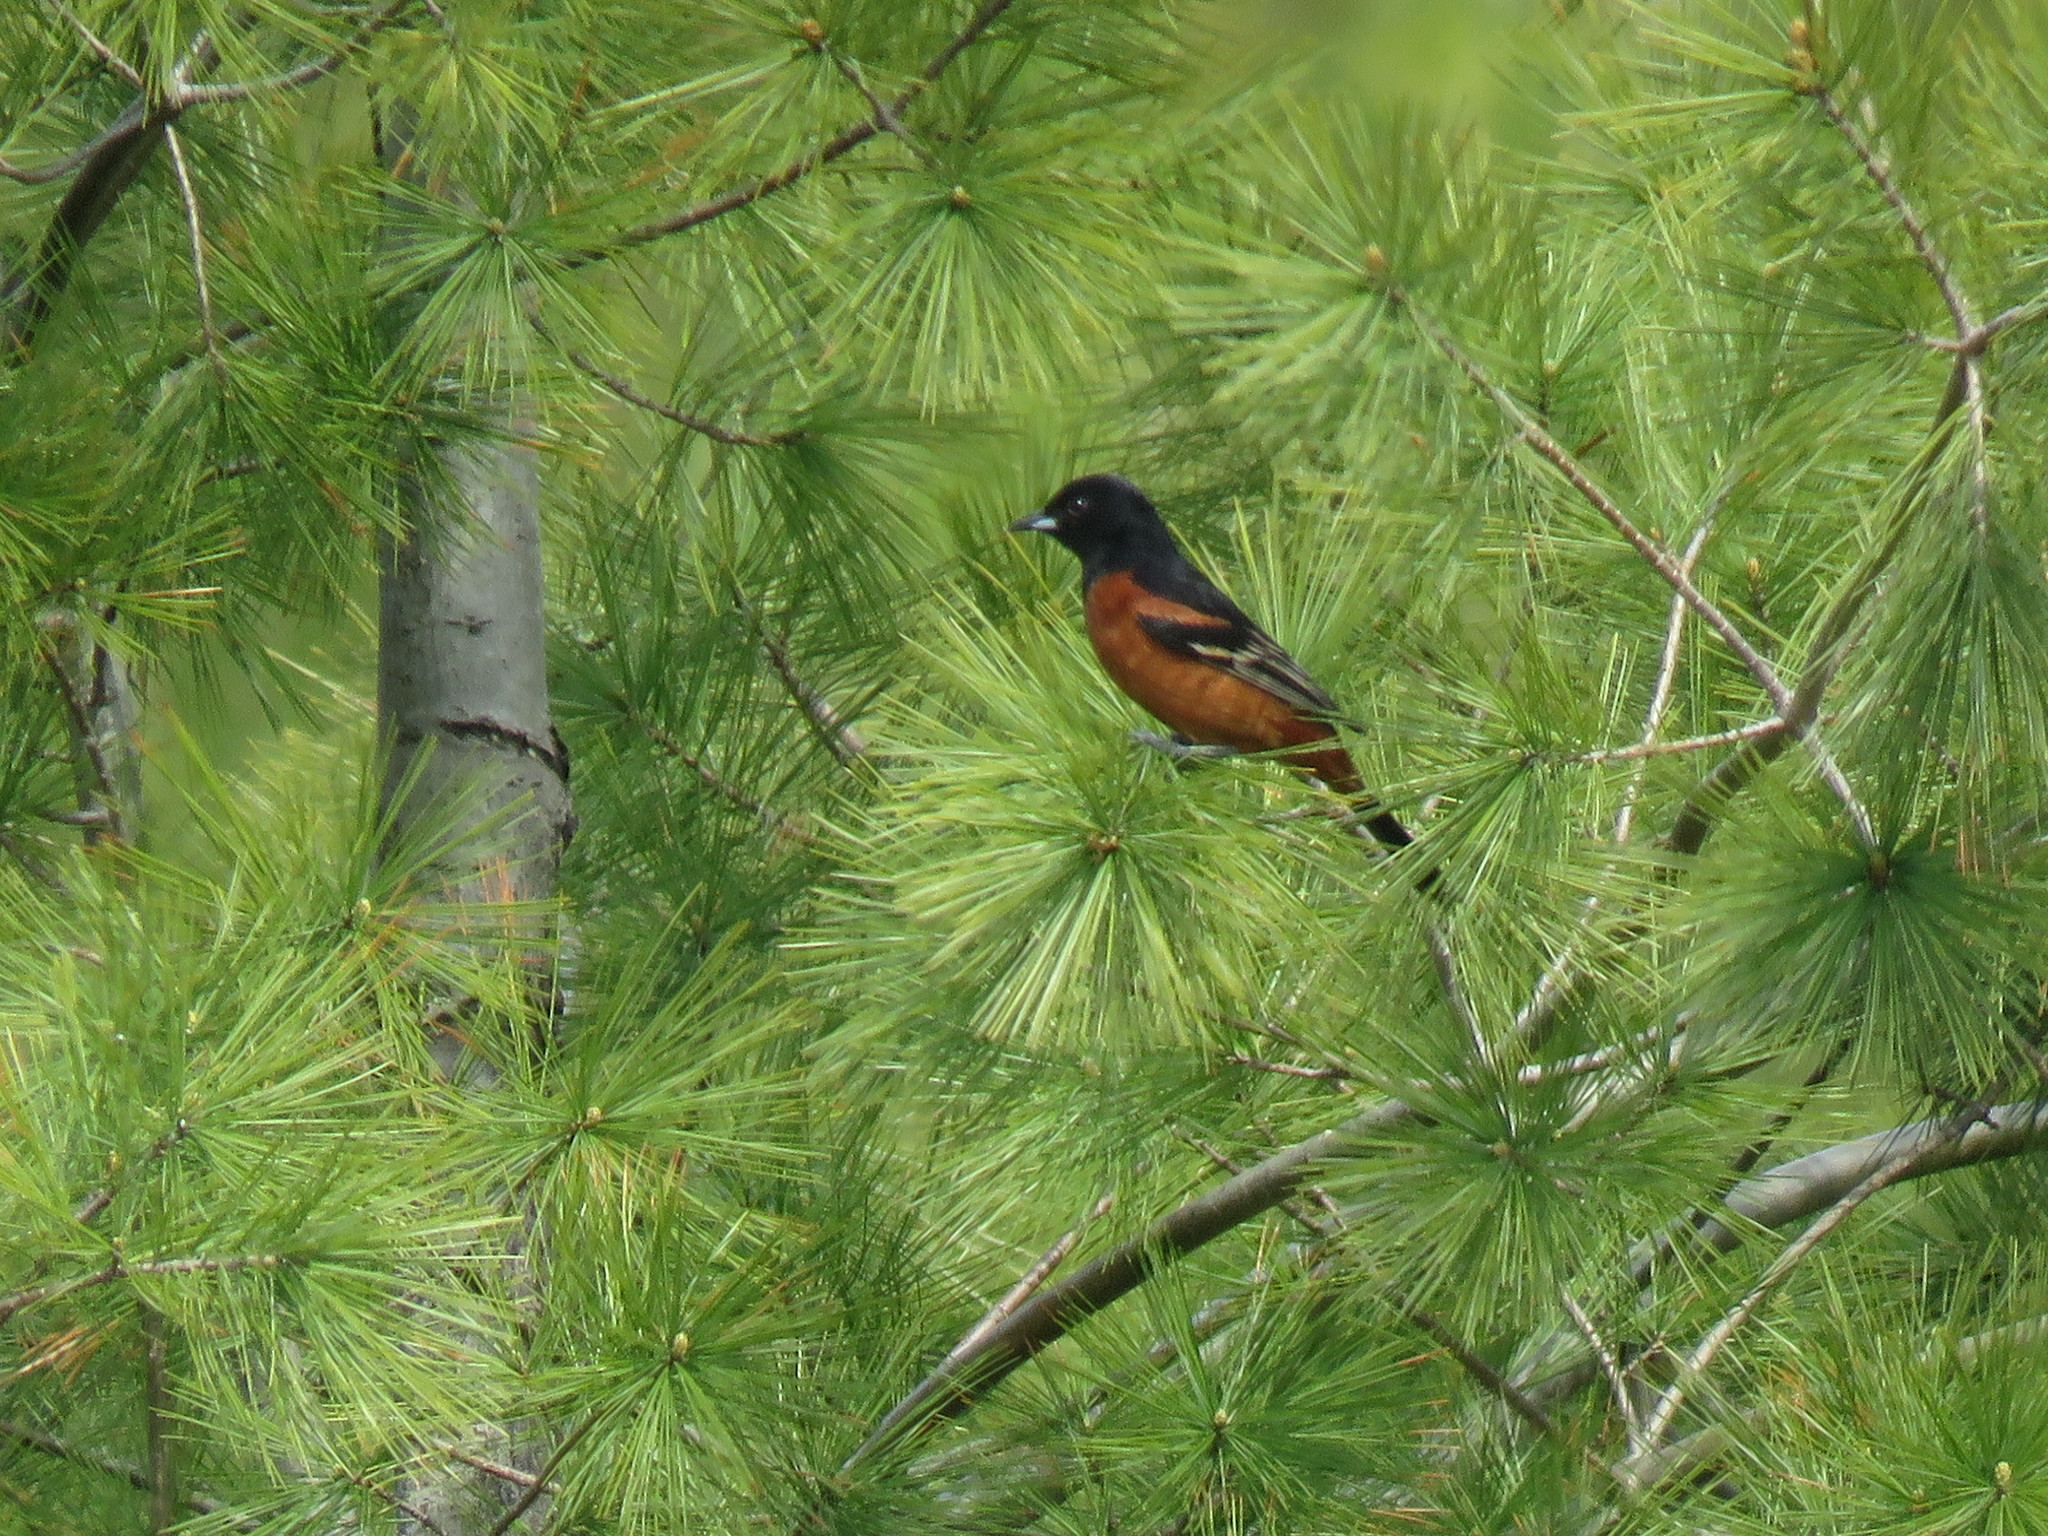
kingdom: Animalia
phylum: Chordata
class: Aves
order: Passeriformes
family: Icteridae
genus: Icterus
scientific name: Icterus spurius
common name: Orchard oriole
